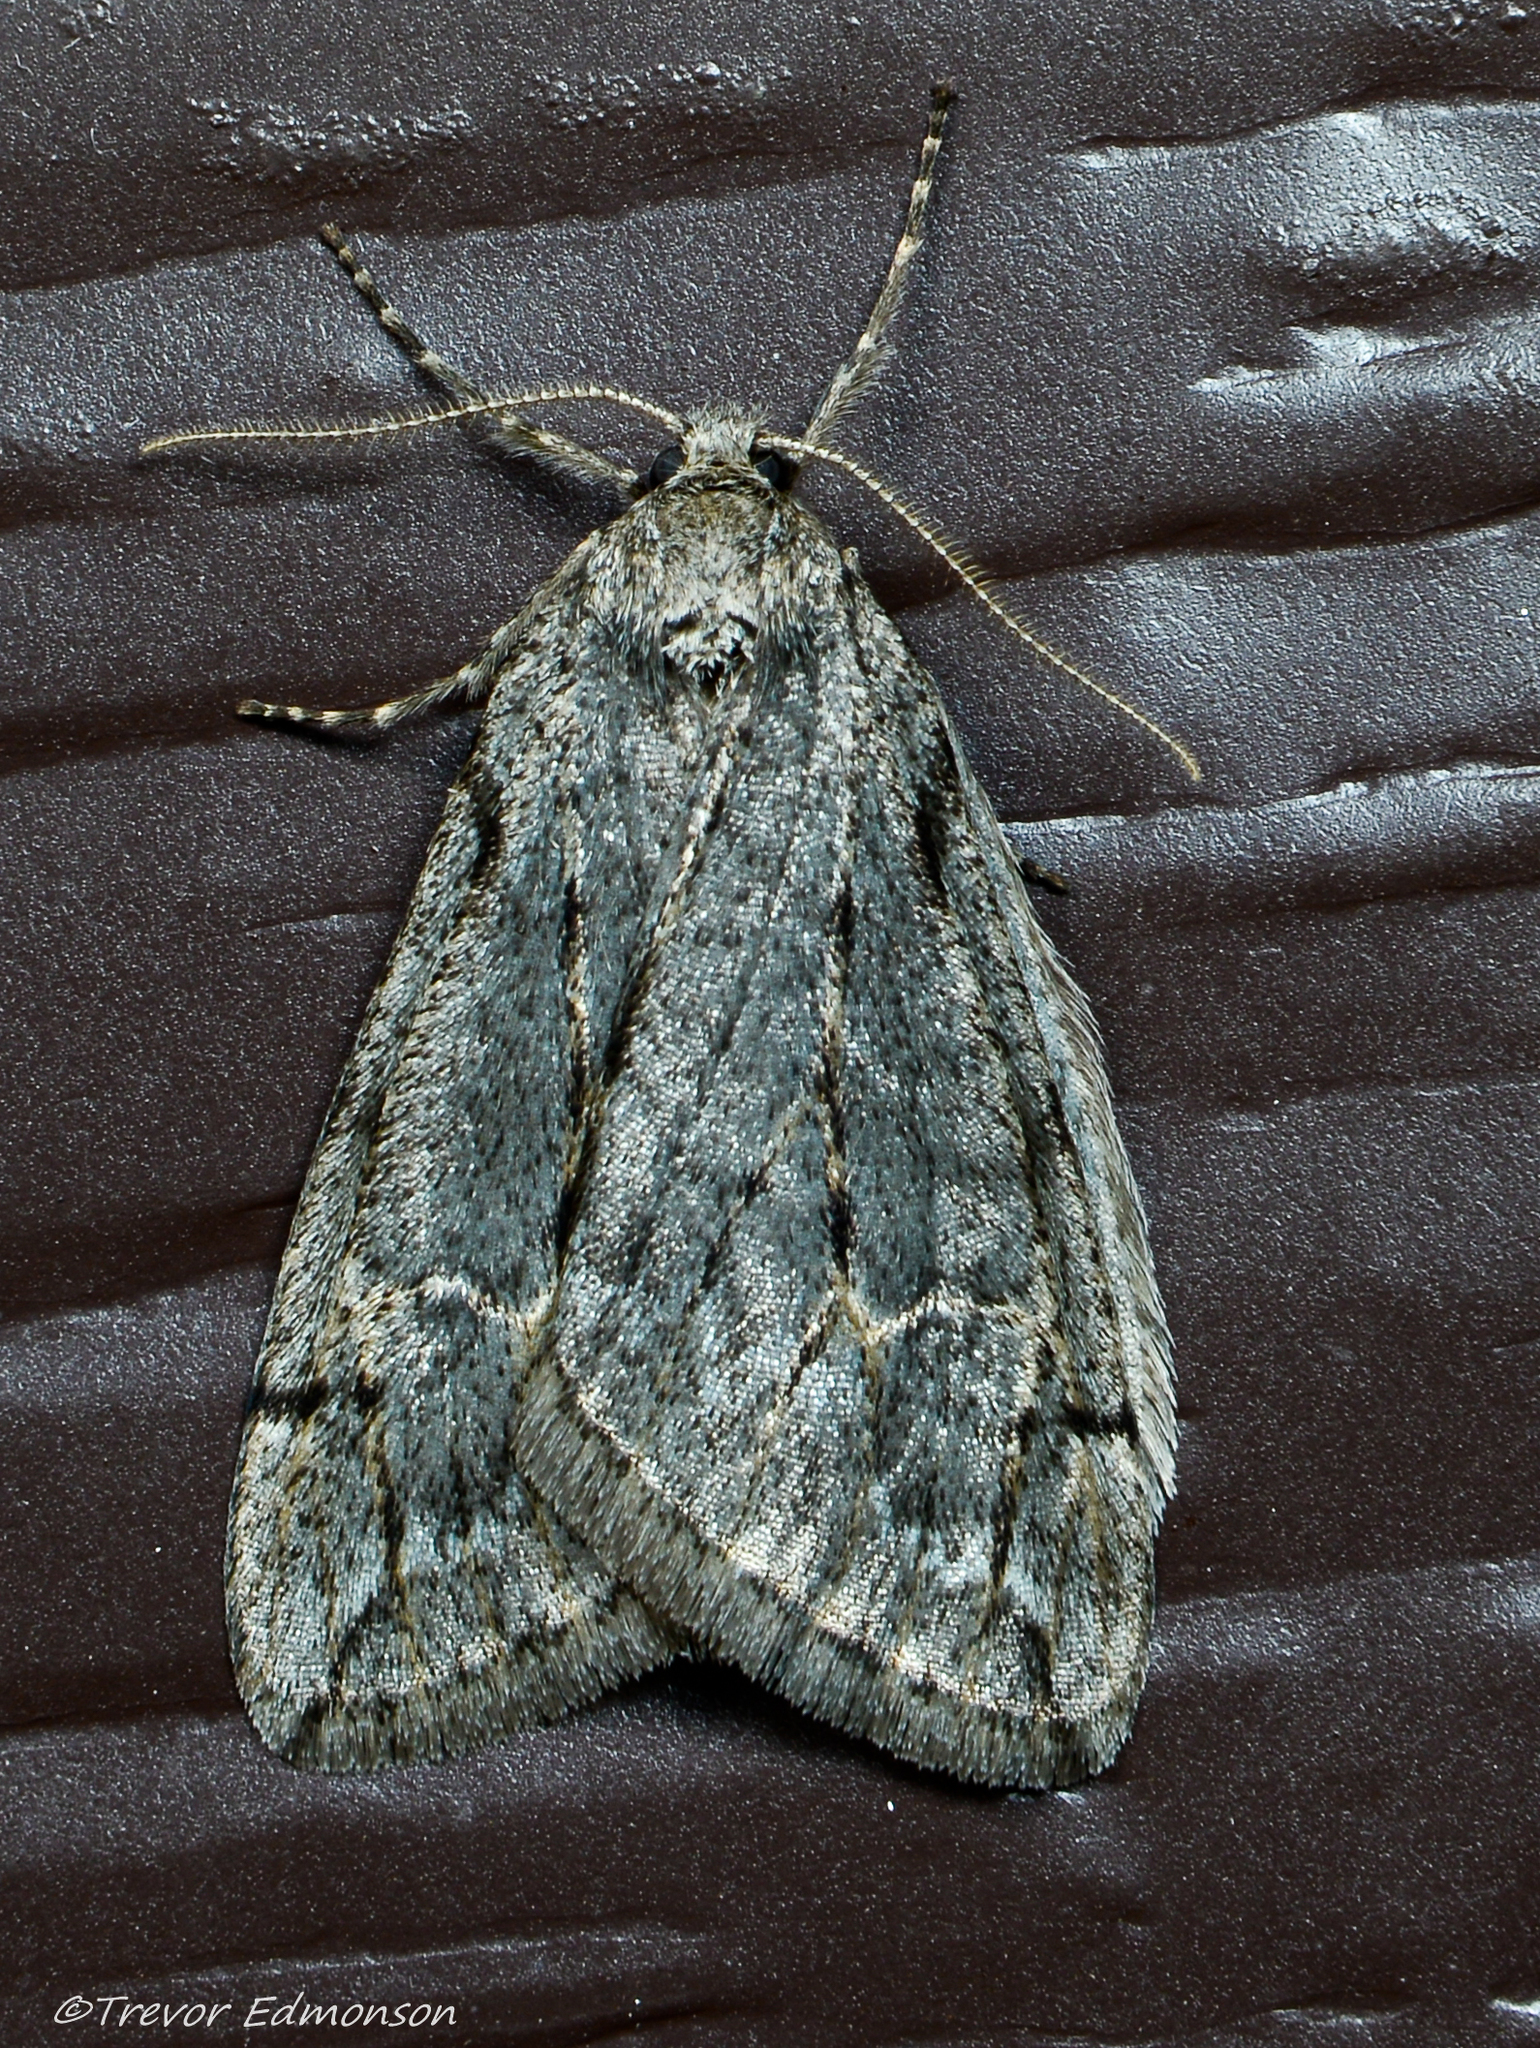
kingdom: Animalia
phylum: Arthropoda
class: Insecta
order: Lepidoptera
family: Geometridae
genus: Paleacrita
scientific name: Paleacrita vernata
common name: Spring cankerworm
